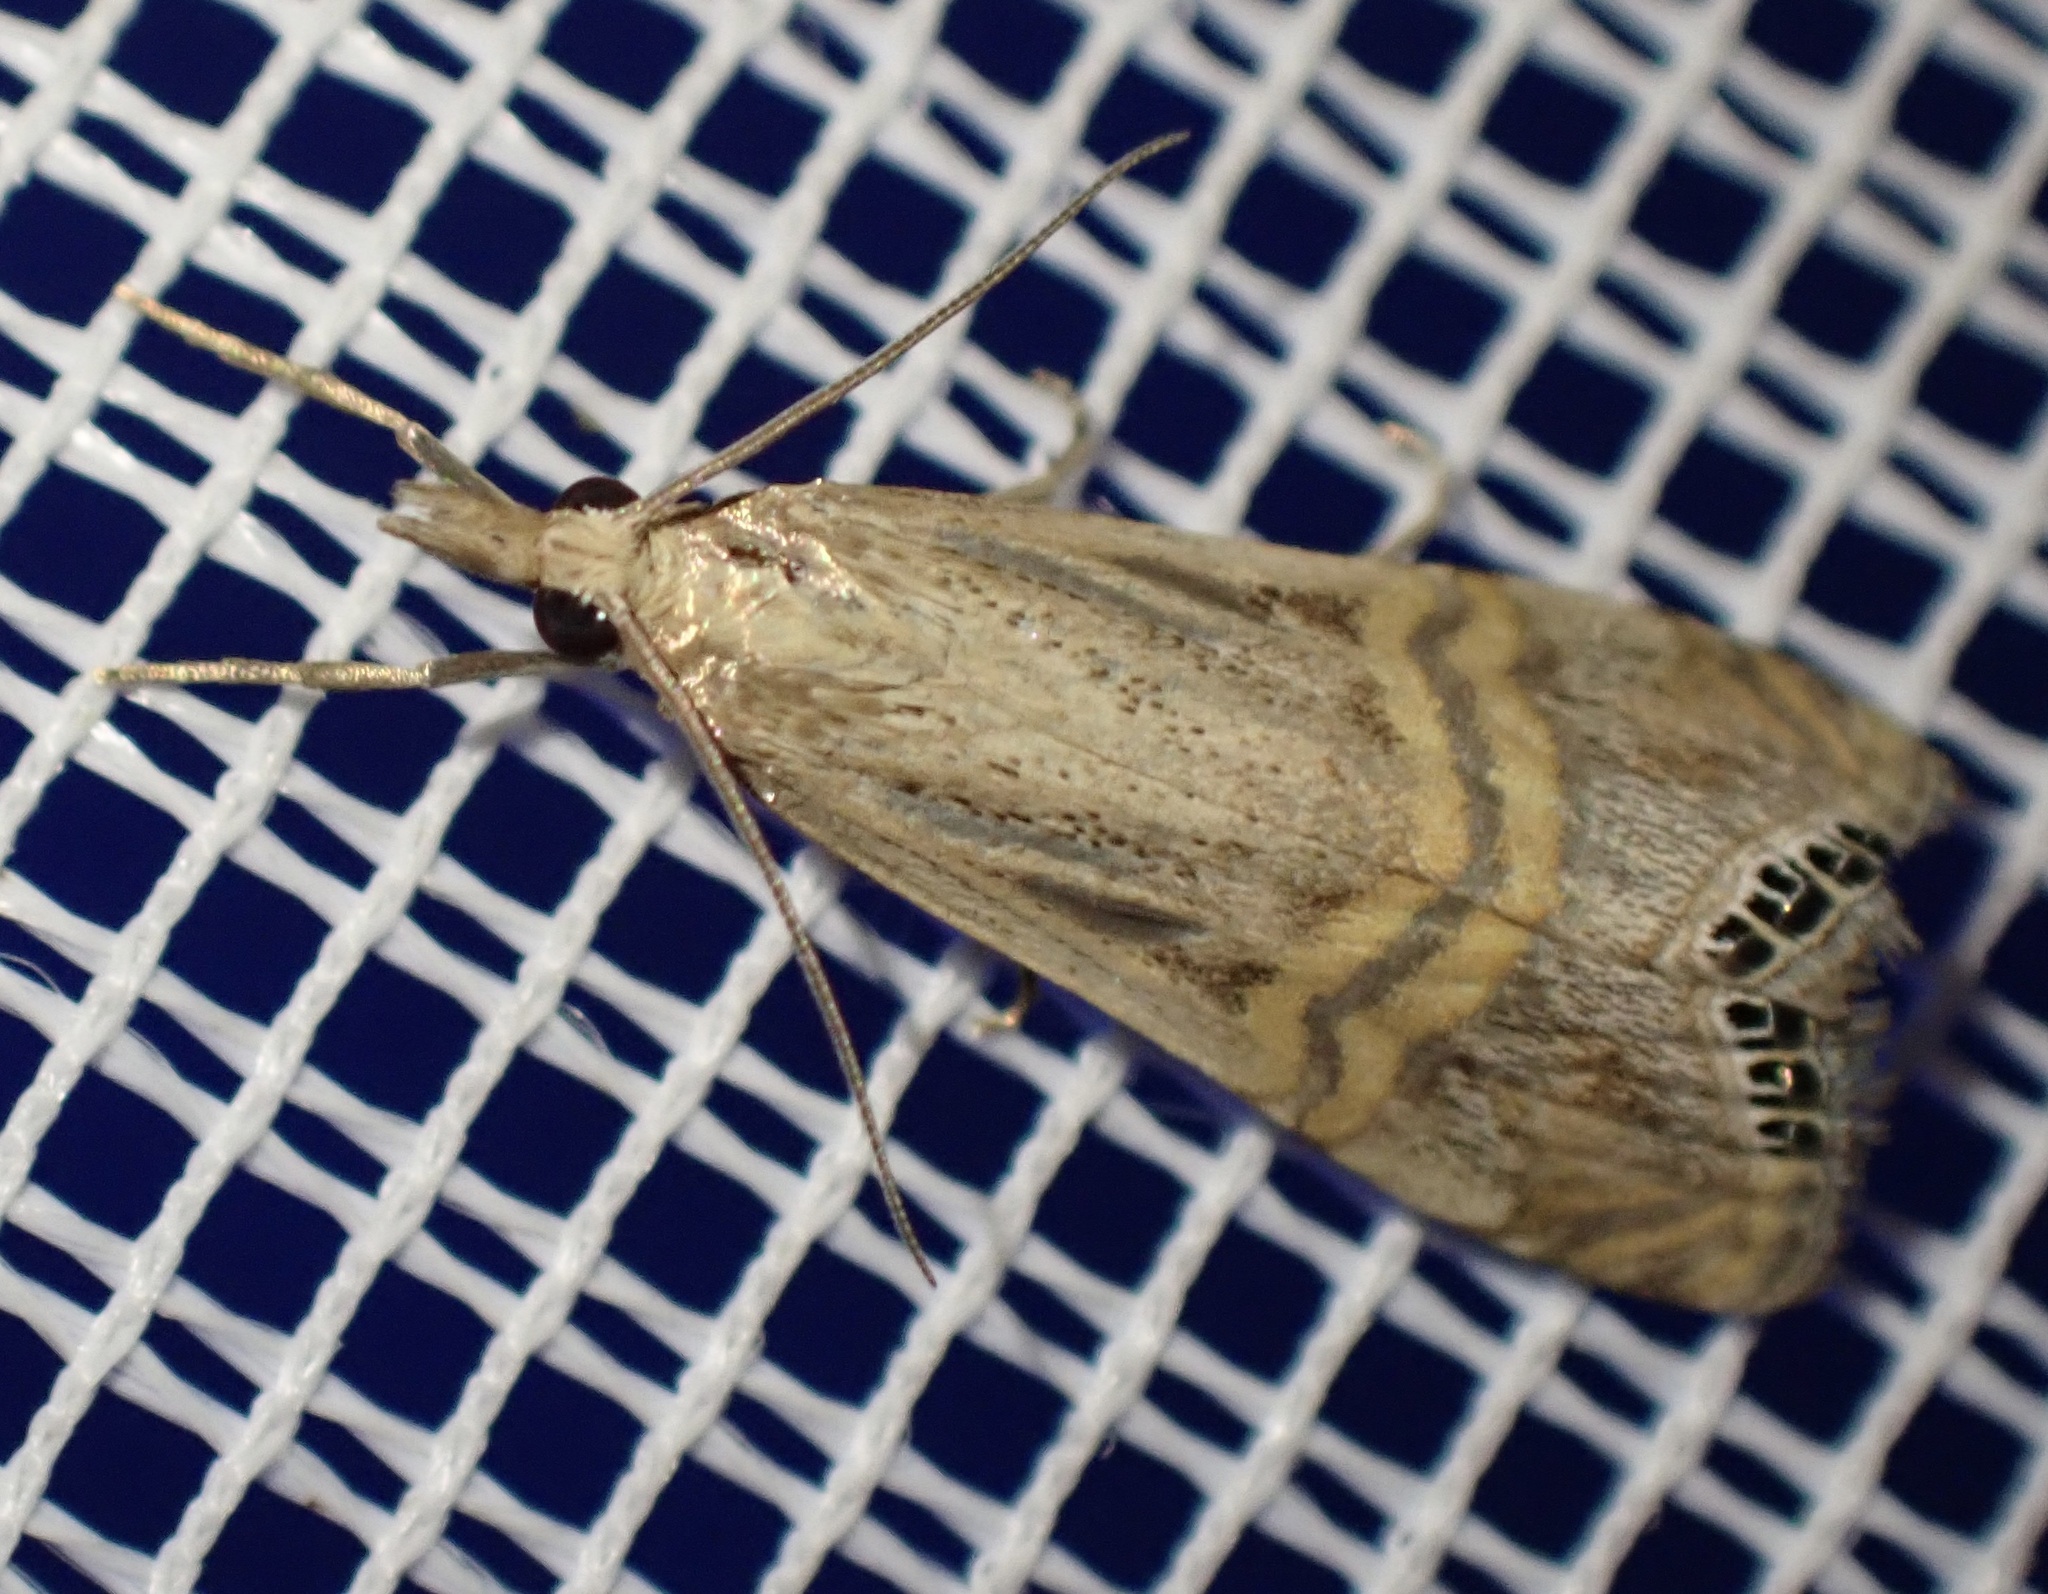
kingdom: Animalia
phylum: Arthropoda
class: Insecta
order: Lepidoptera
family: Crambidae
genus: Euchromius
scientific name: Euchromius ocellea
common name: Necklace veneer moth
